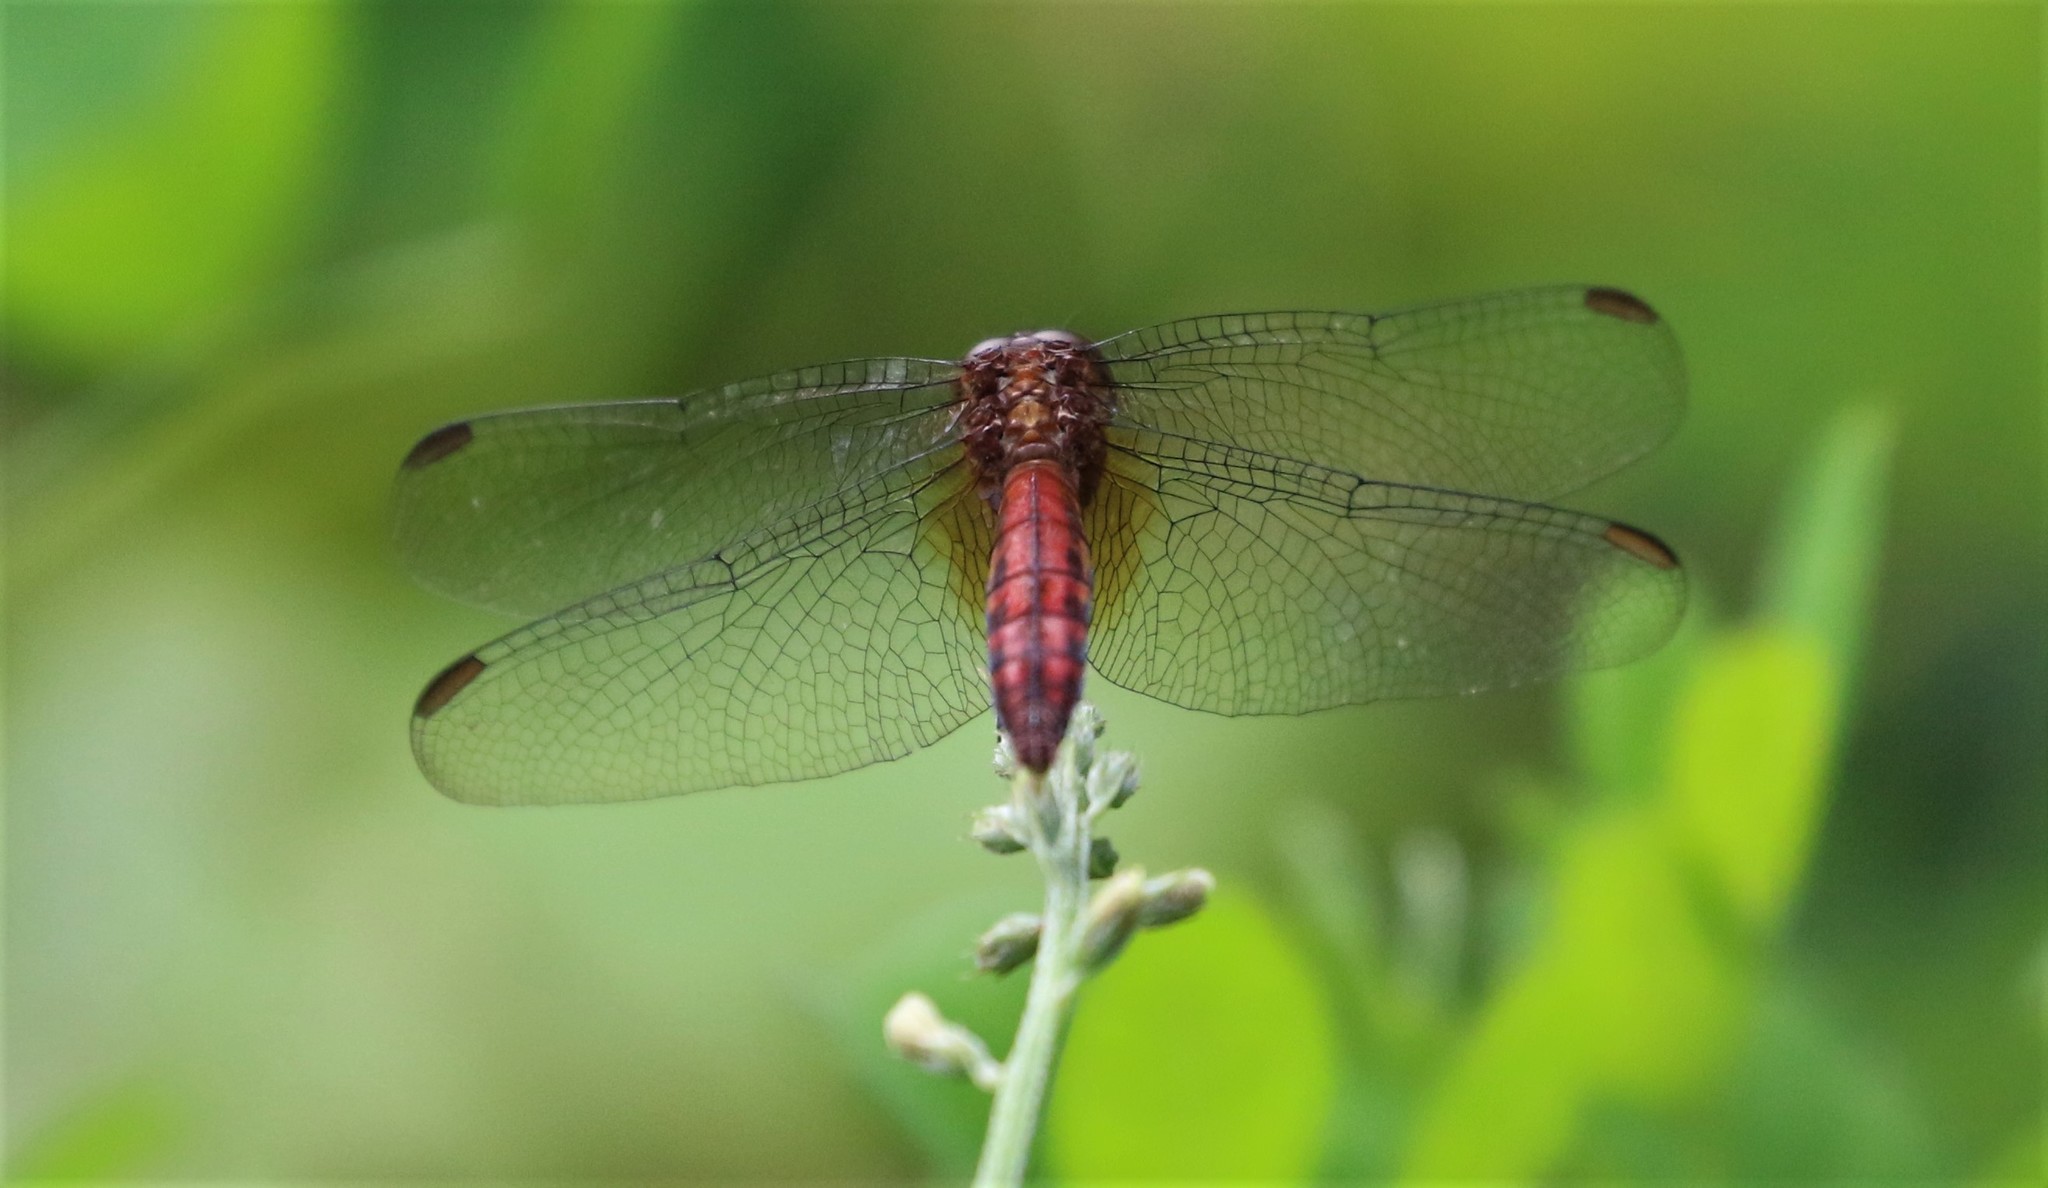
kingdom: Animalia
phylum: Arthropoda
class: Insecta
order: Odonata
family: Libellulidae
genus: Erythrodiplax
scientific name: Erythrodiplax fusca
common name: Red-faced dragonlet
